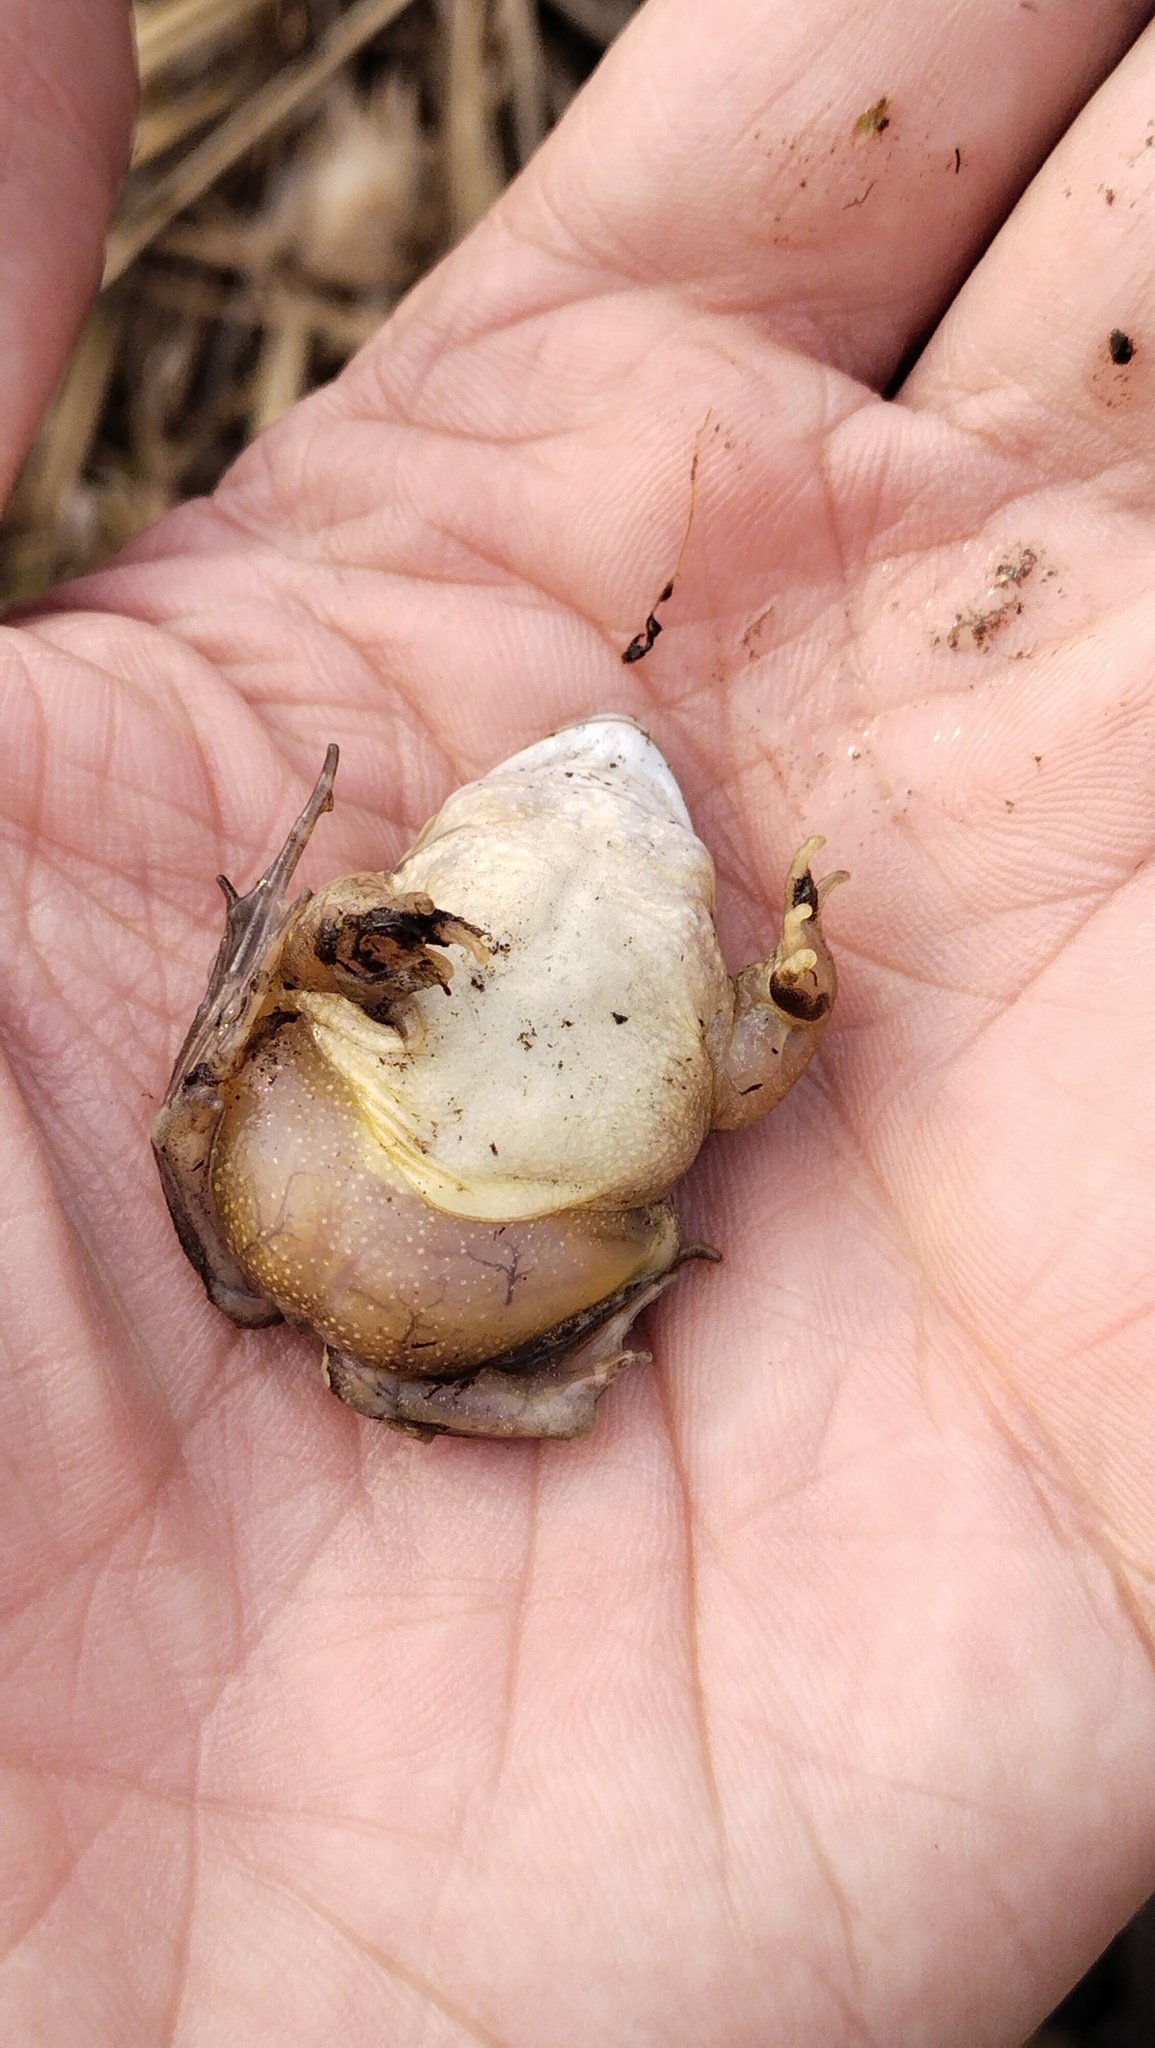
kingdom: Animalia
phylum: Chordata
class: Amphibia
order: Anura
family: Ranidae
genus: Rana
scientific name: Rana arvalis
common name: Moor frog
